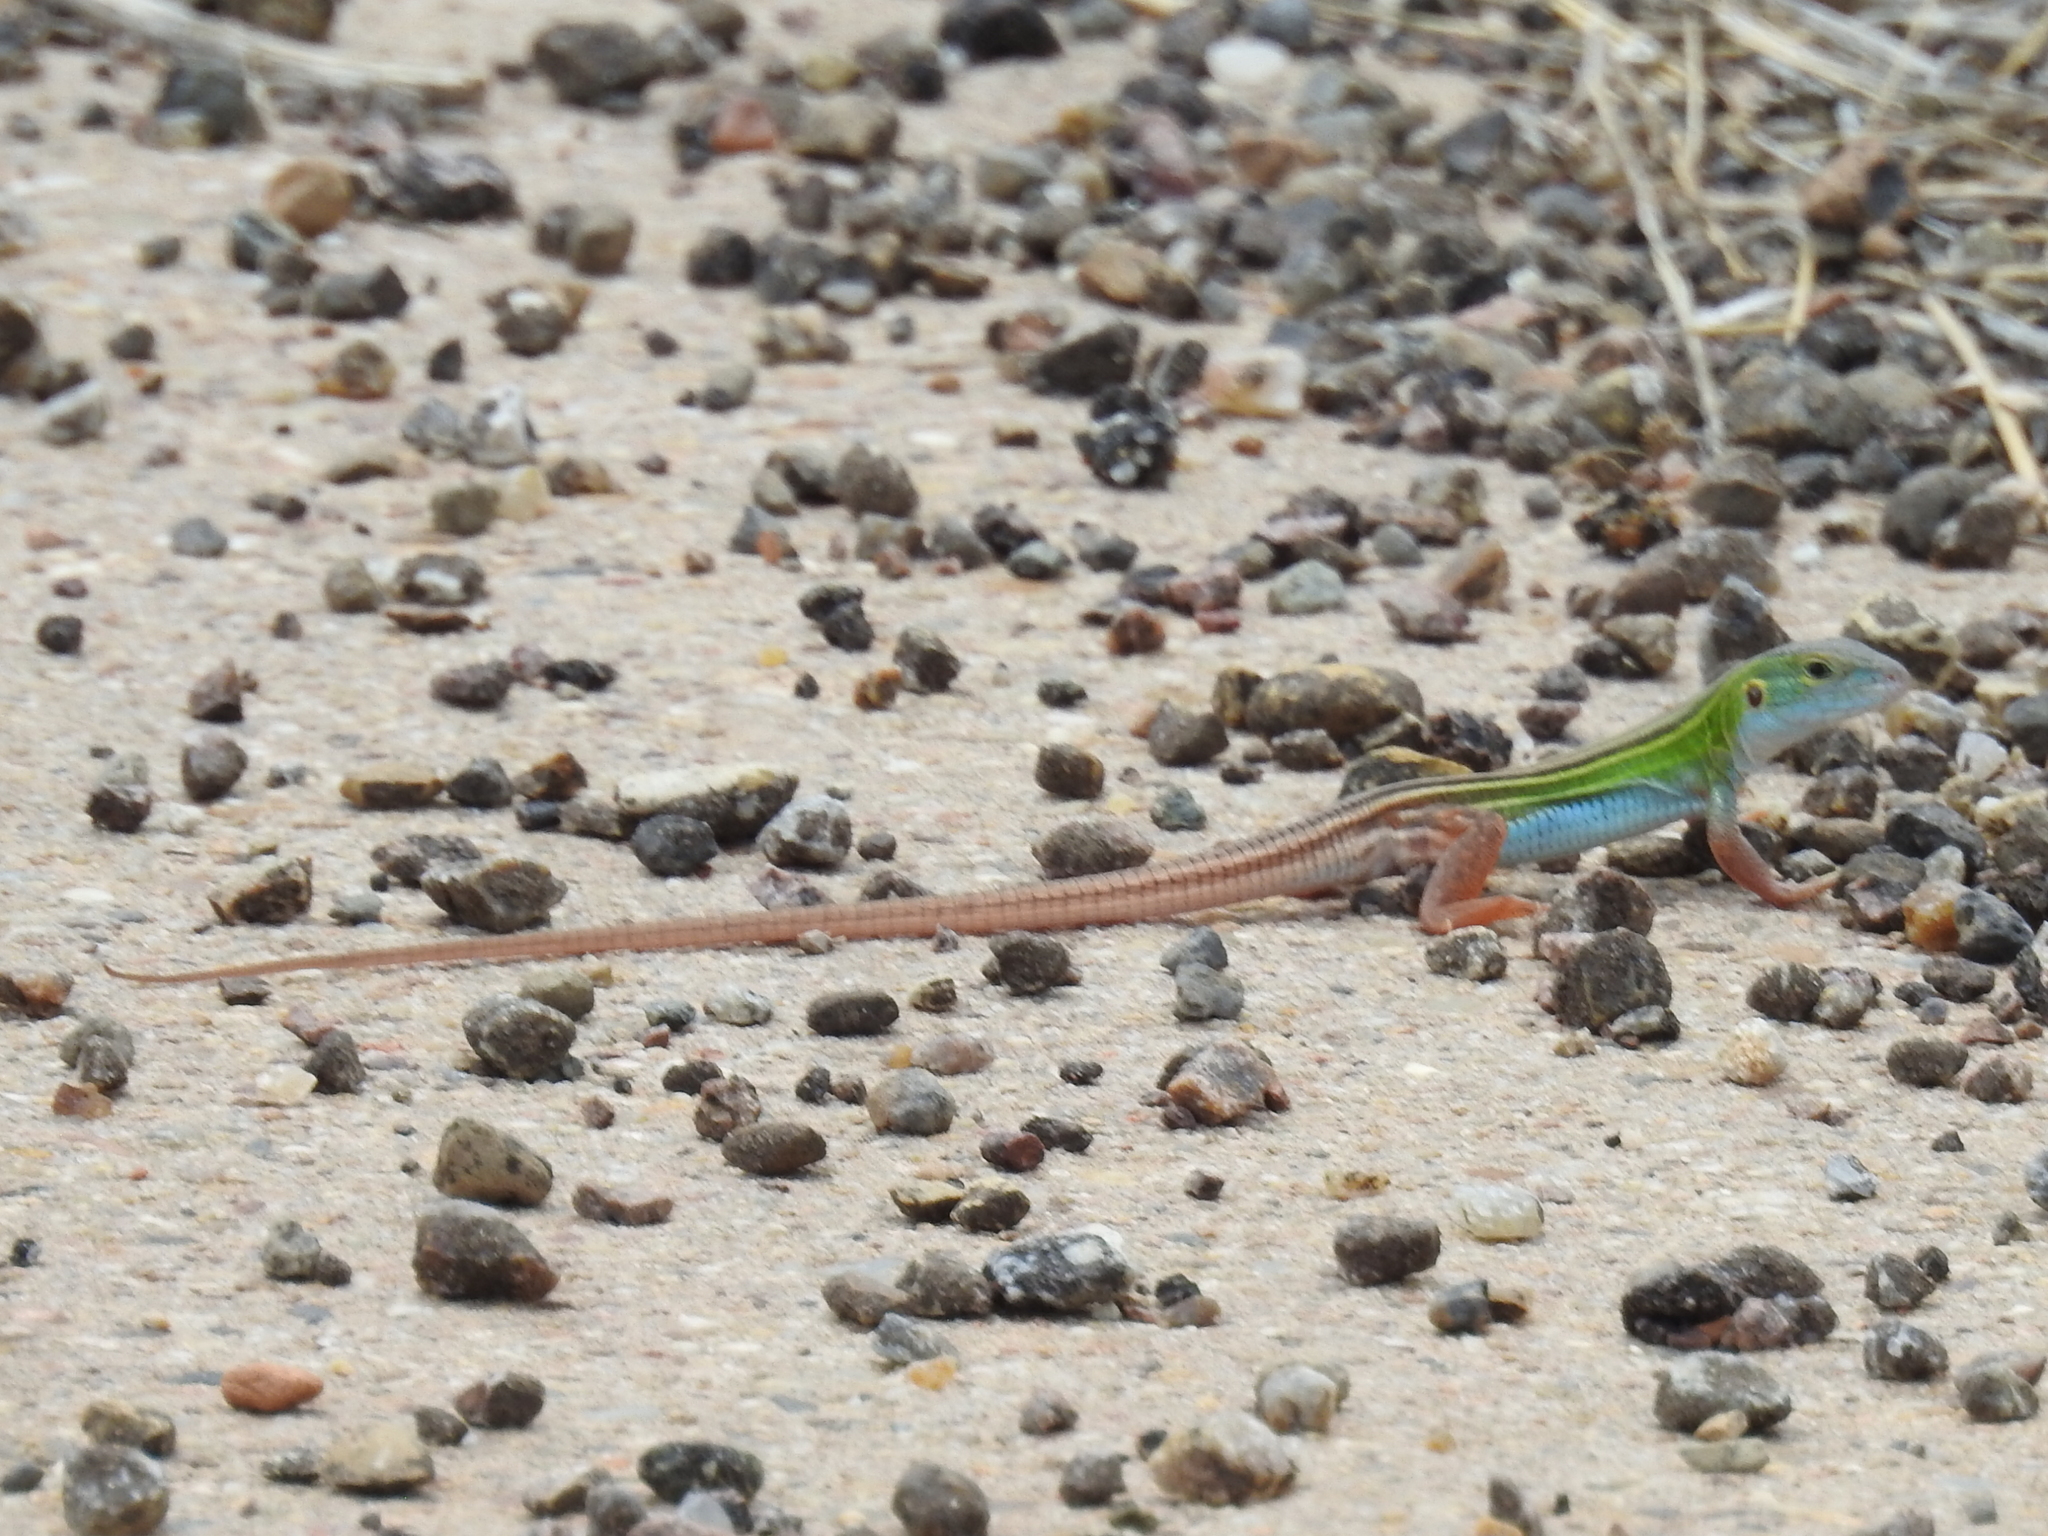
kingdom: Animalia
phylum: Chordata
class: Squamata
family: Teiidae
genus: Aspidoscelis
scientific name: Aspidoscelis sexlineatus
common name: Six-lined racerunner
